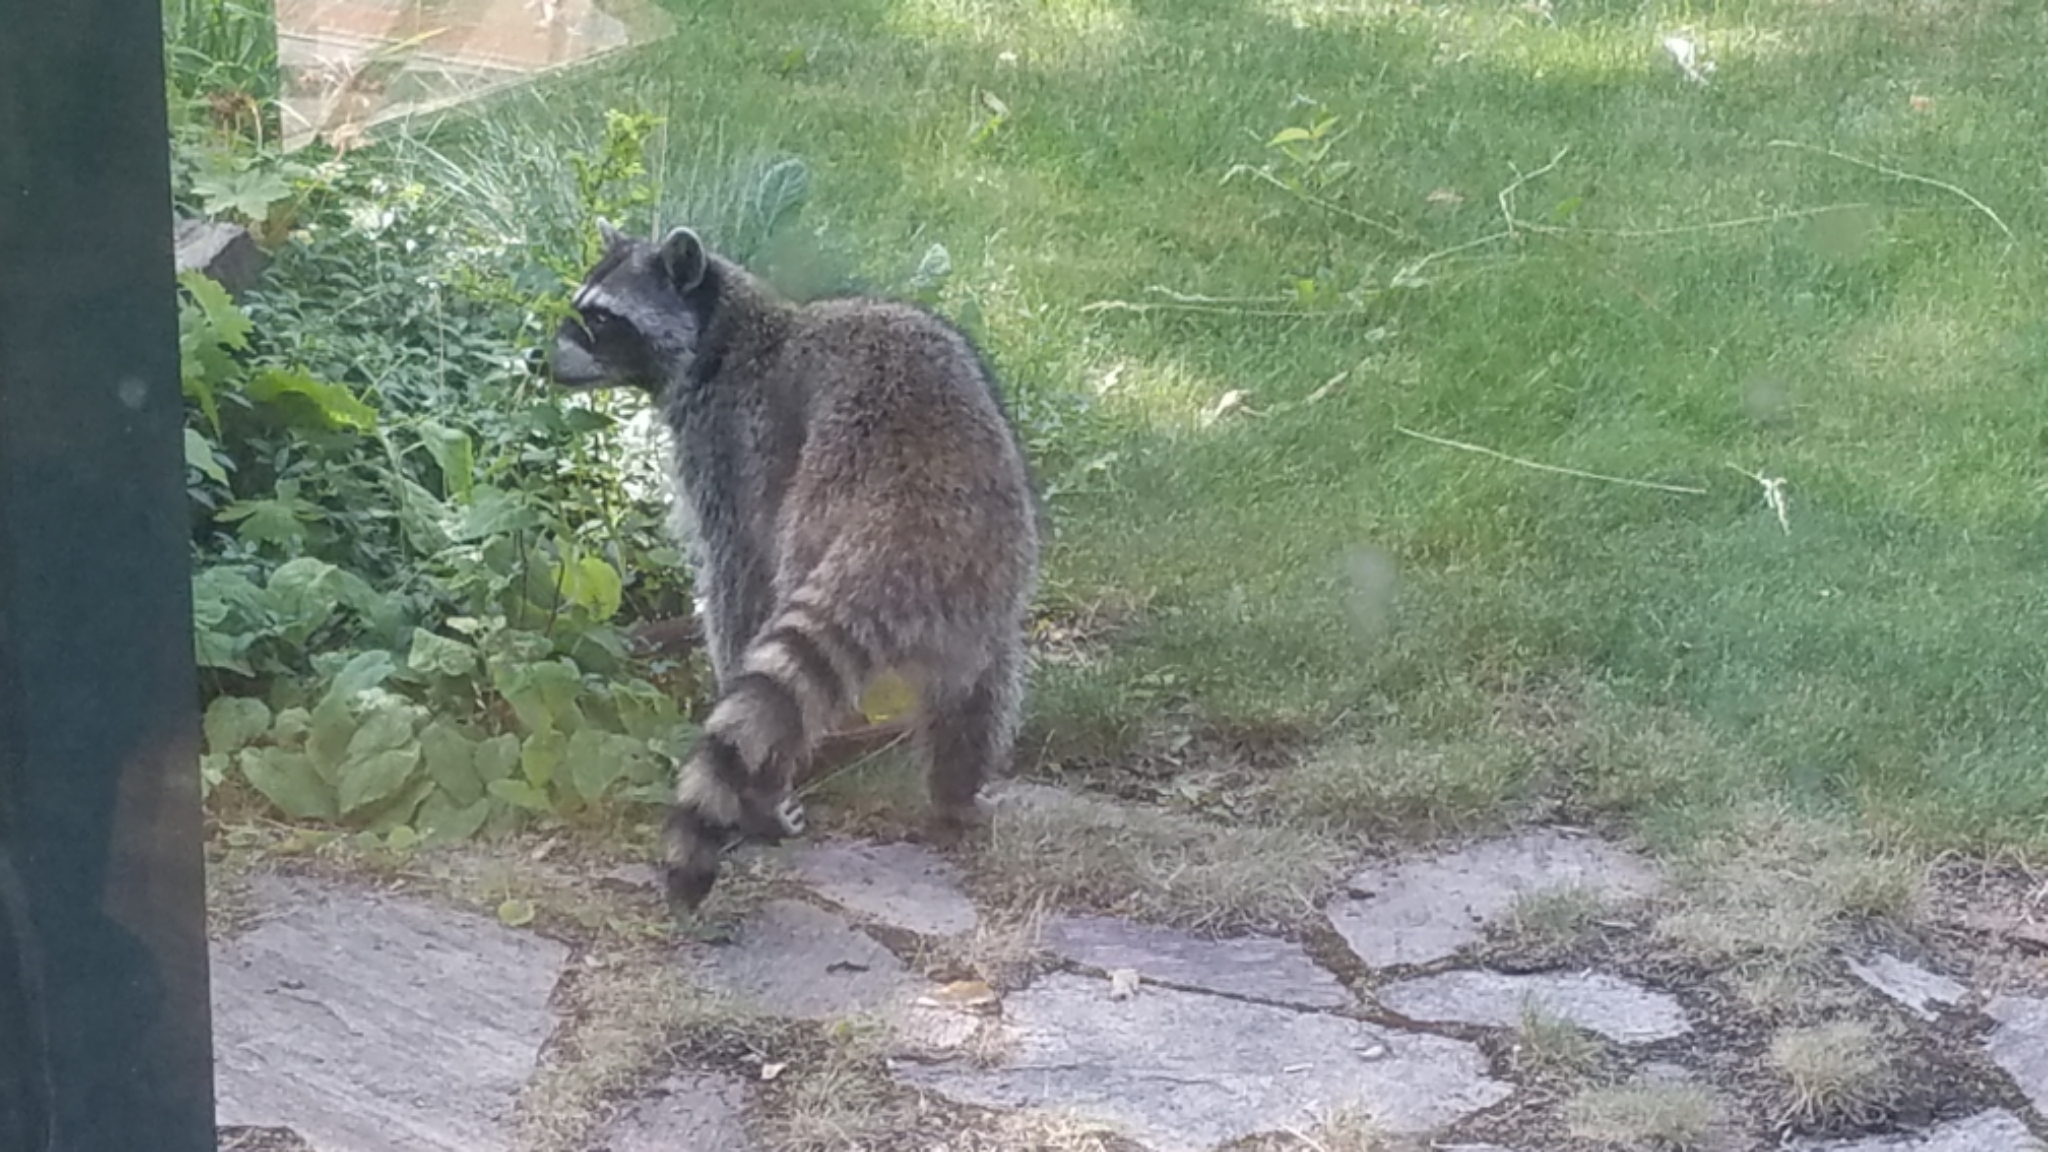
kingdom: Animalia
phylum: Chordata
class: Mammalia
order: Carnivora
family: Procyonidae
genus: Procyon
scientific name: Procyon lotor
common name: Raccoon
